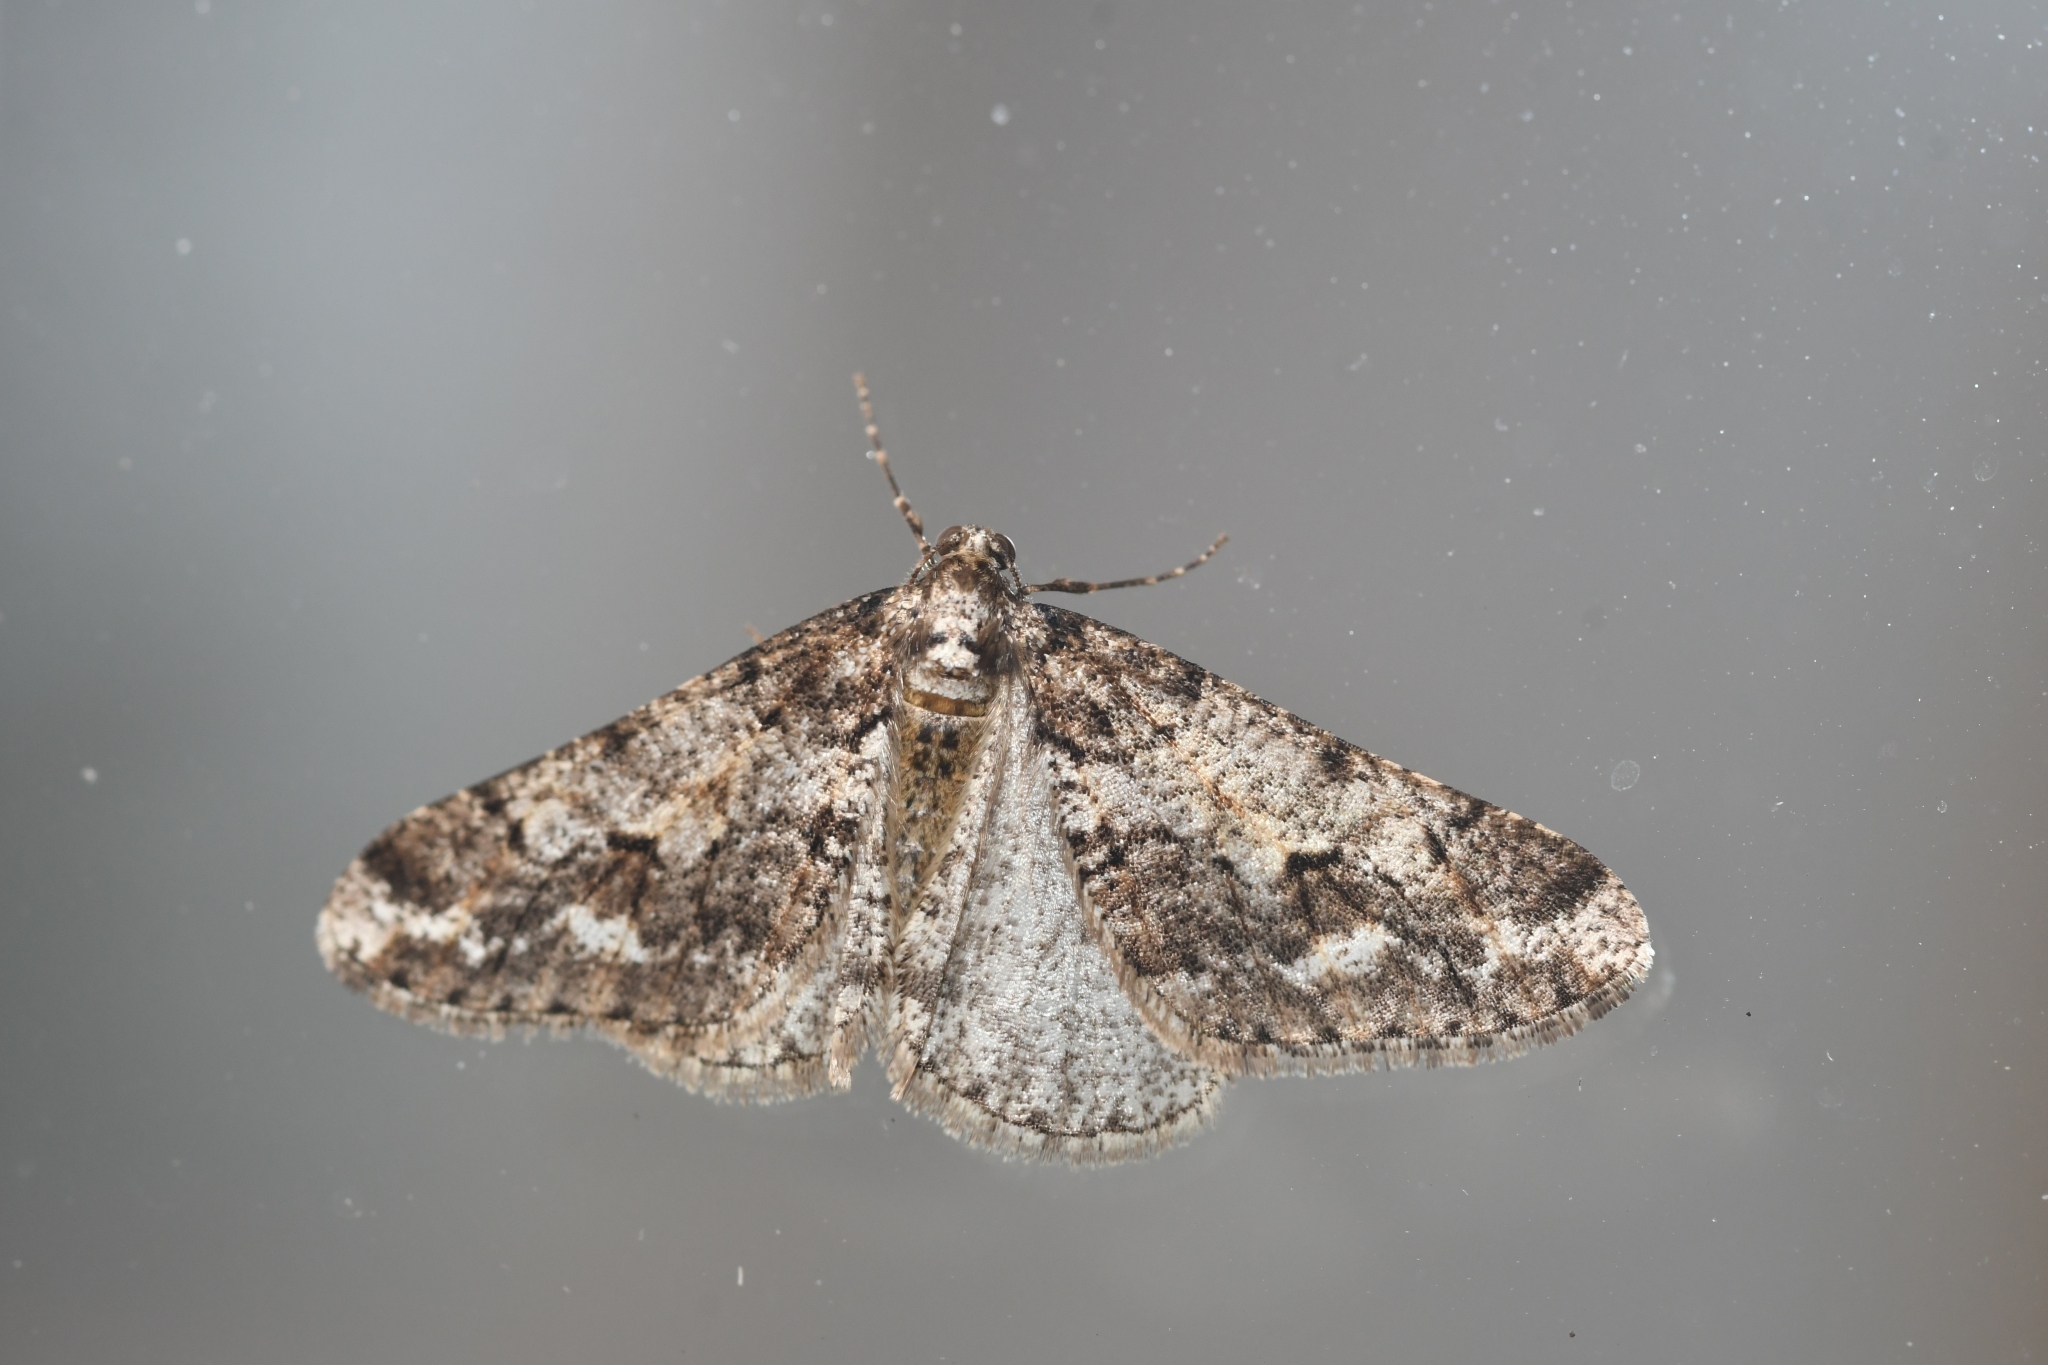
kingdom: Animalia
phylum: Arthropoda
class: Insecta
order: Lepidoptera
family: Geometridae
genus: Agriopis
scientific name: Agriopis leucophaearia
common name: Spring usher
